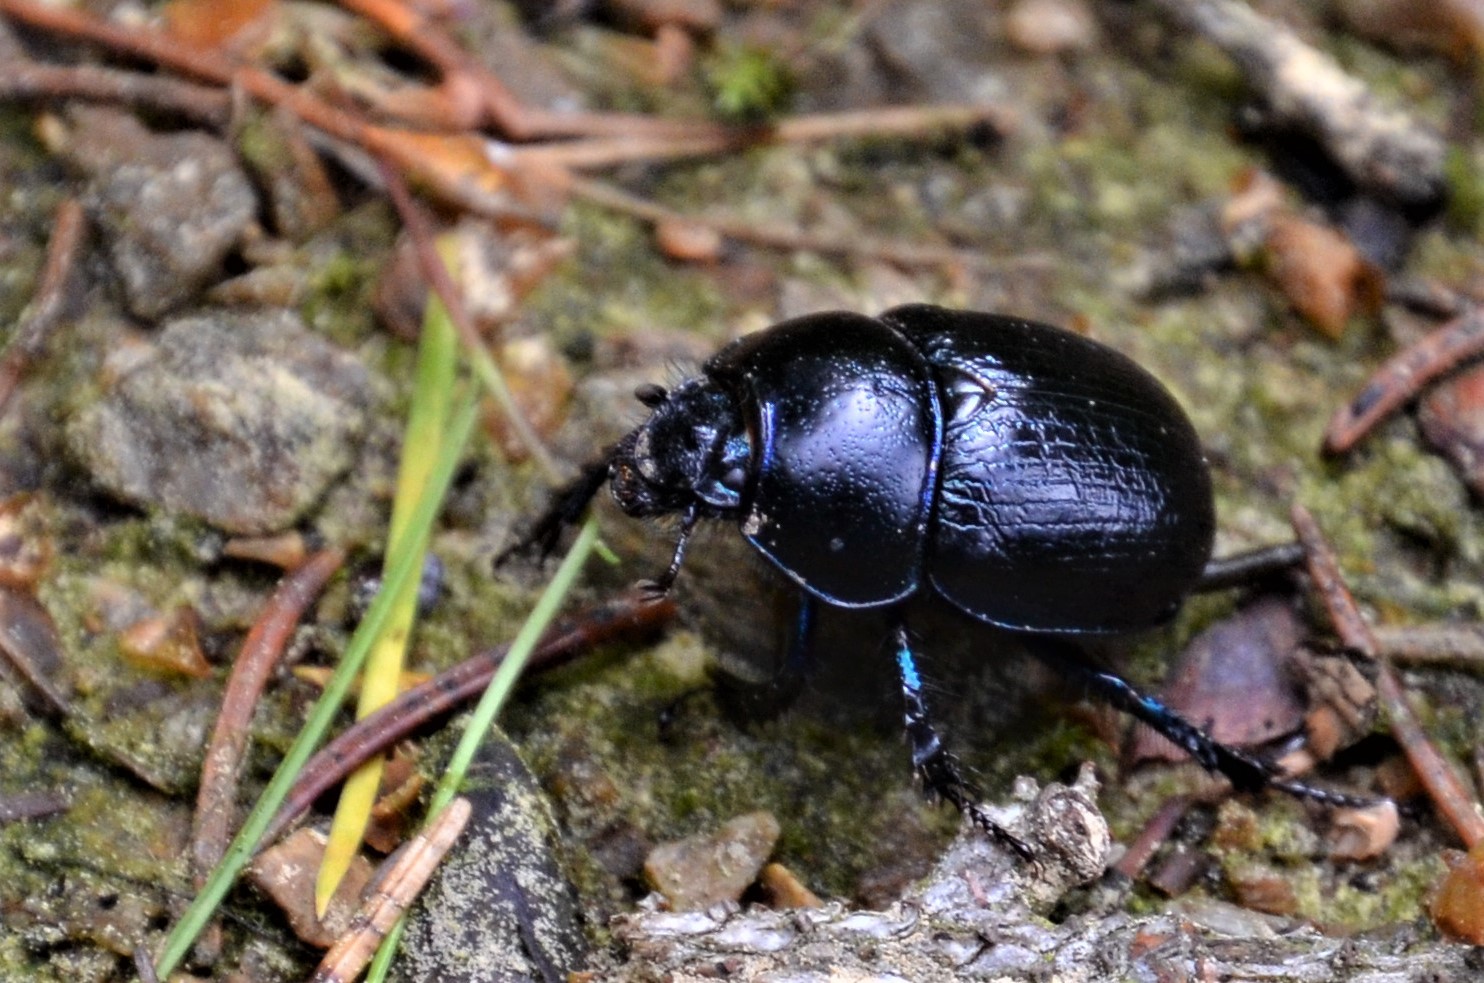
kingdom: Animalia
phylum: Arthropoda
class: Insecta
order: Coleoptera
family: Geotrupidae
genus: Anoplotrupes
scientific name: Anoplotrupes stercorosus
